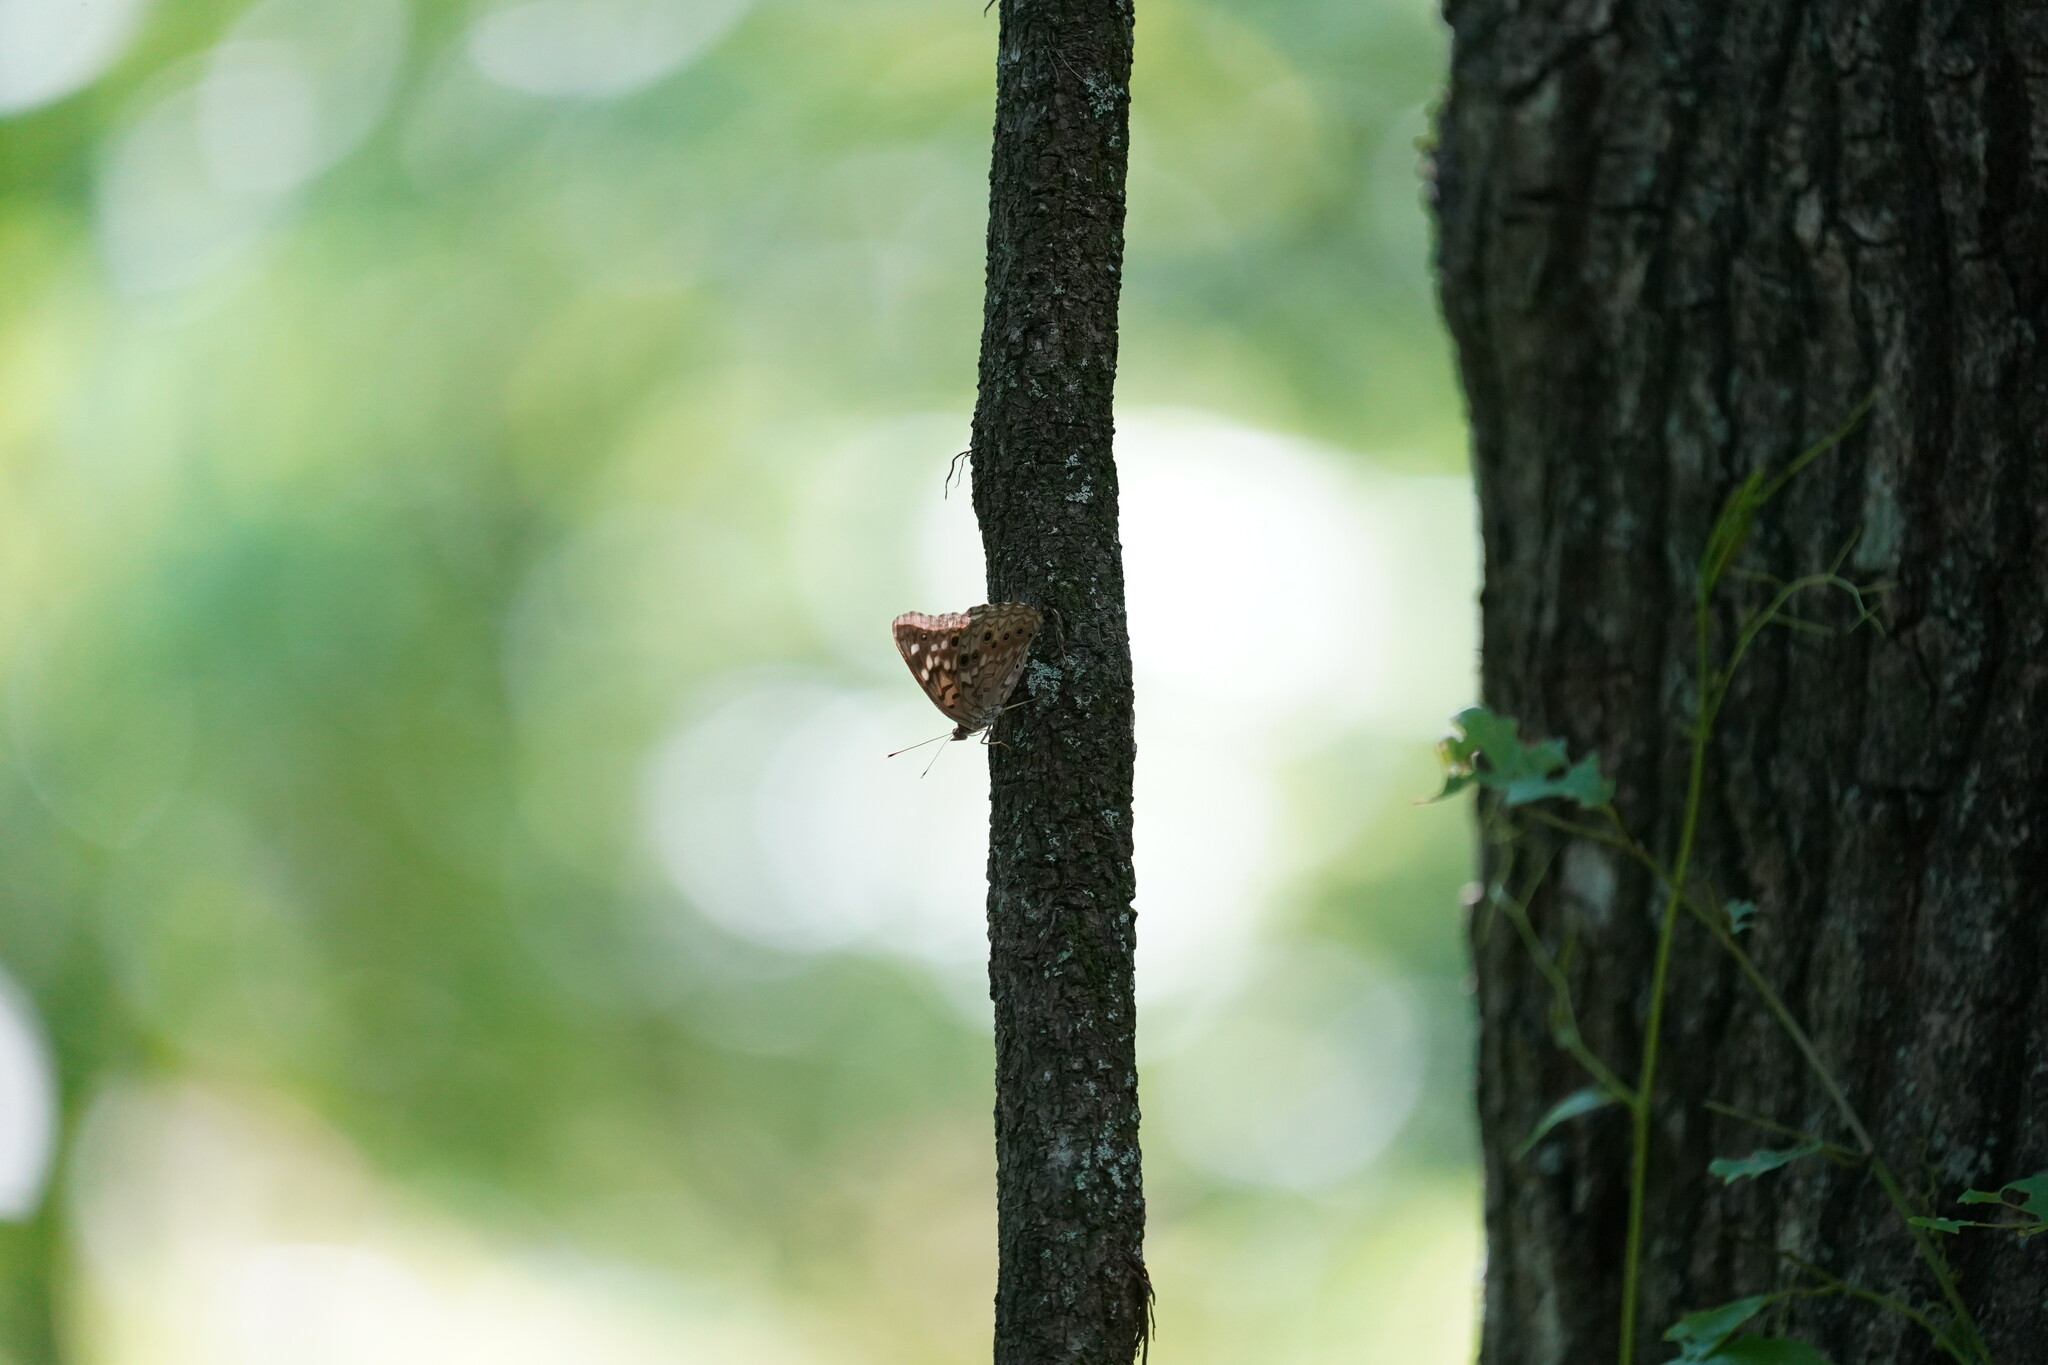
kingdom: Animalia
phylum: Arthropoda
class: Insecta
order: Lepidoptera
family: Nymphalidae
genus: Asterocampa
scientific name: Asterocampa celtis
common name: Hackberry emperor
